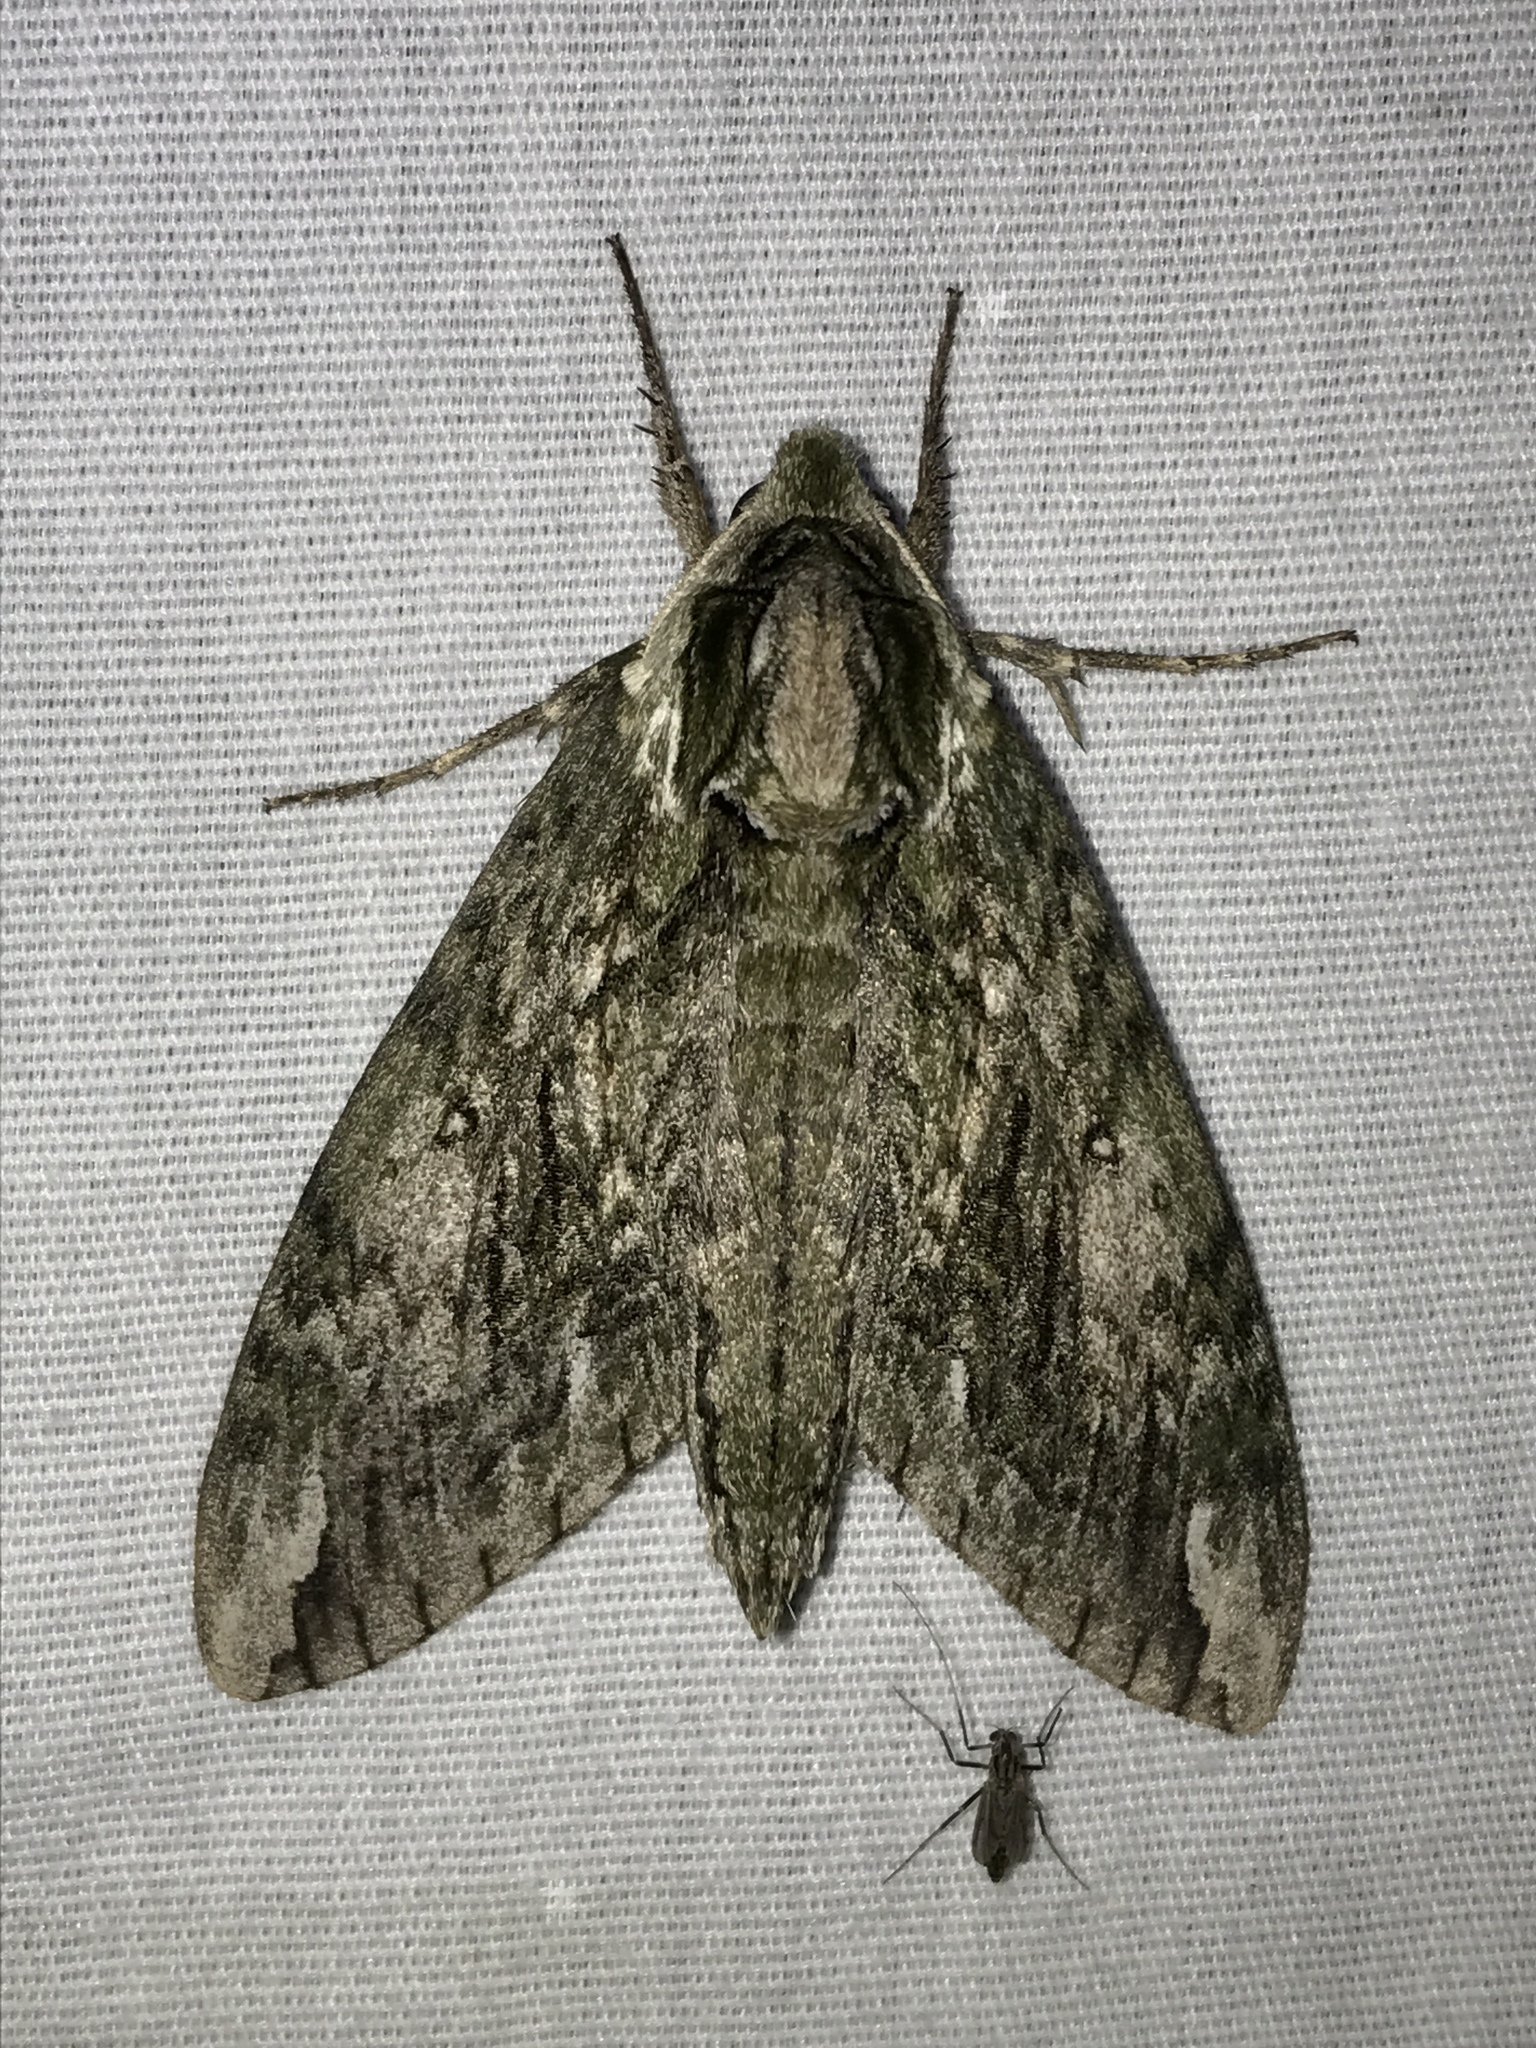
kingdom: Animalia
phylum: Arthropoda
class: Insecta
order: Lepidoptera
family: Sphingidae
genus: Ceratomia
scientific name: Ceratomia hageni
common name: Hagen's sphinx
